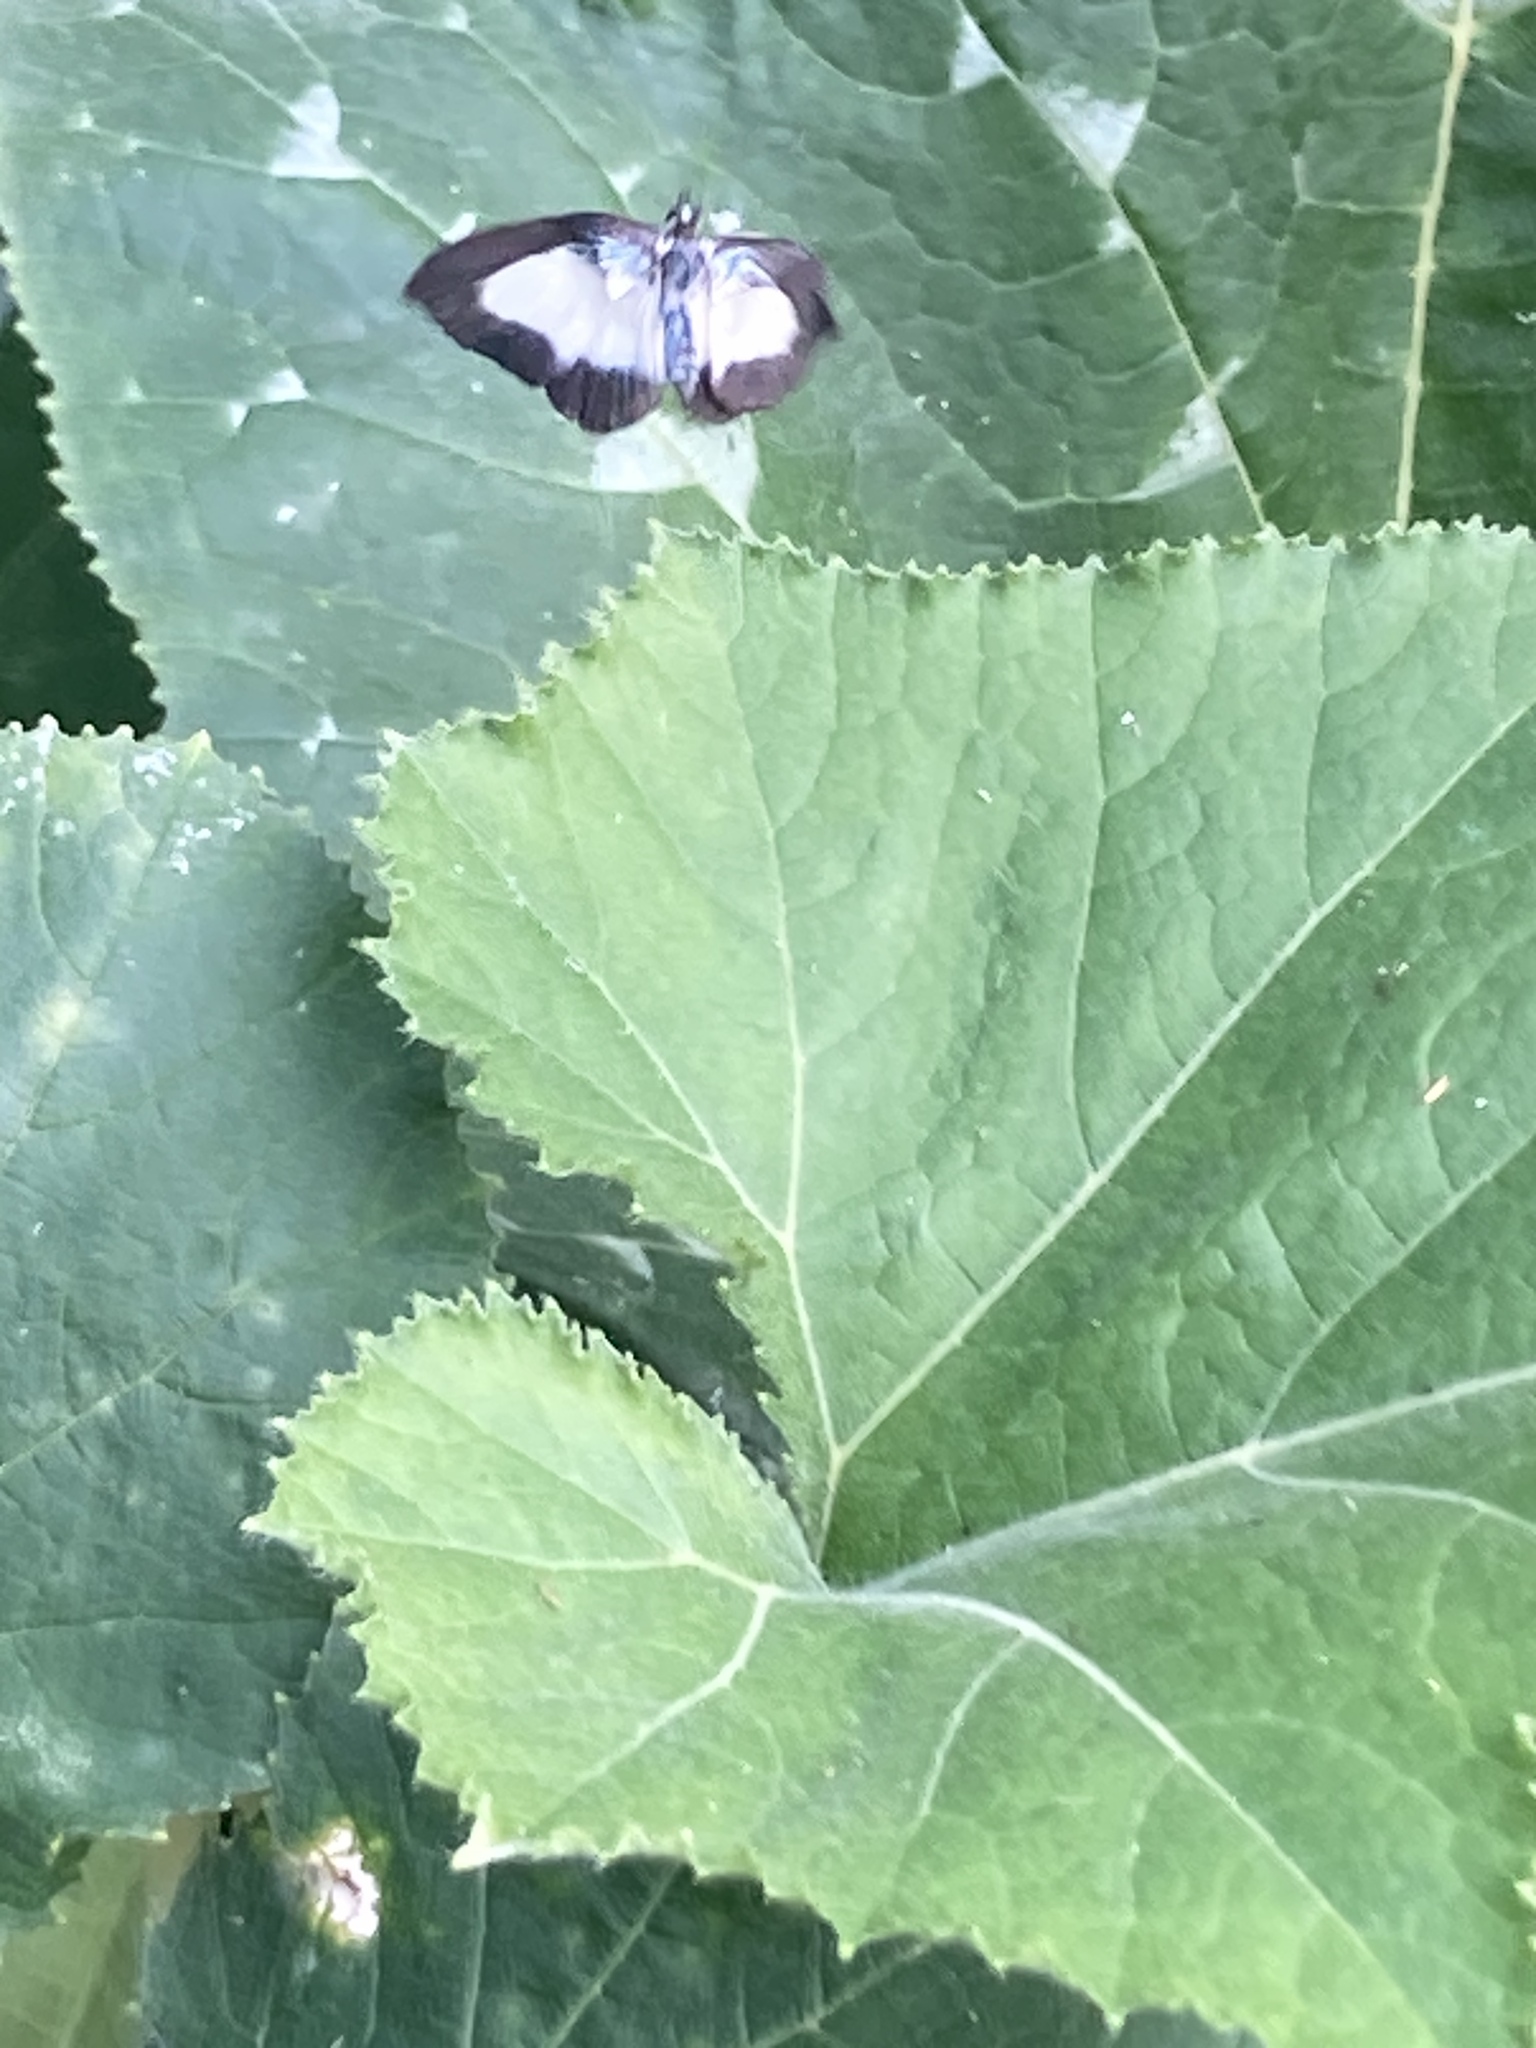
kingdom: Animalia
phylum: Arthropoda
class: Insecta
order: Lepidoptera
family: Lycaenidae
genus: Psychonotis
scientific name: Psychonotis caelius
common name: Small green banded blue
